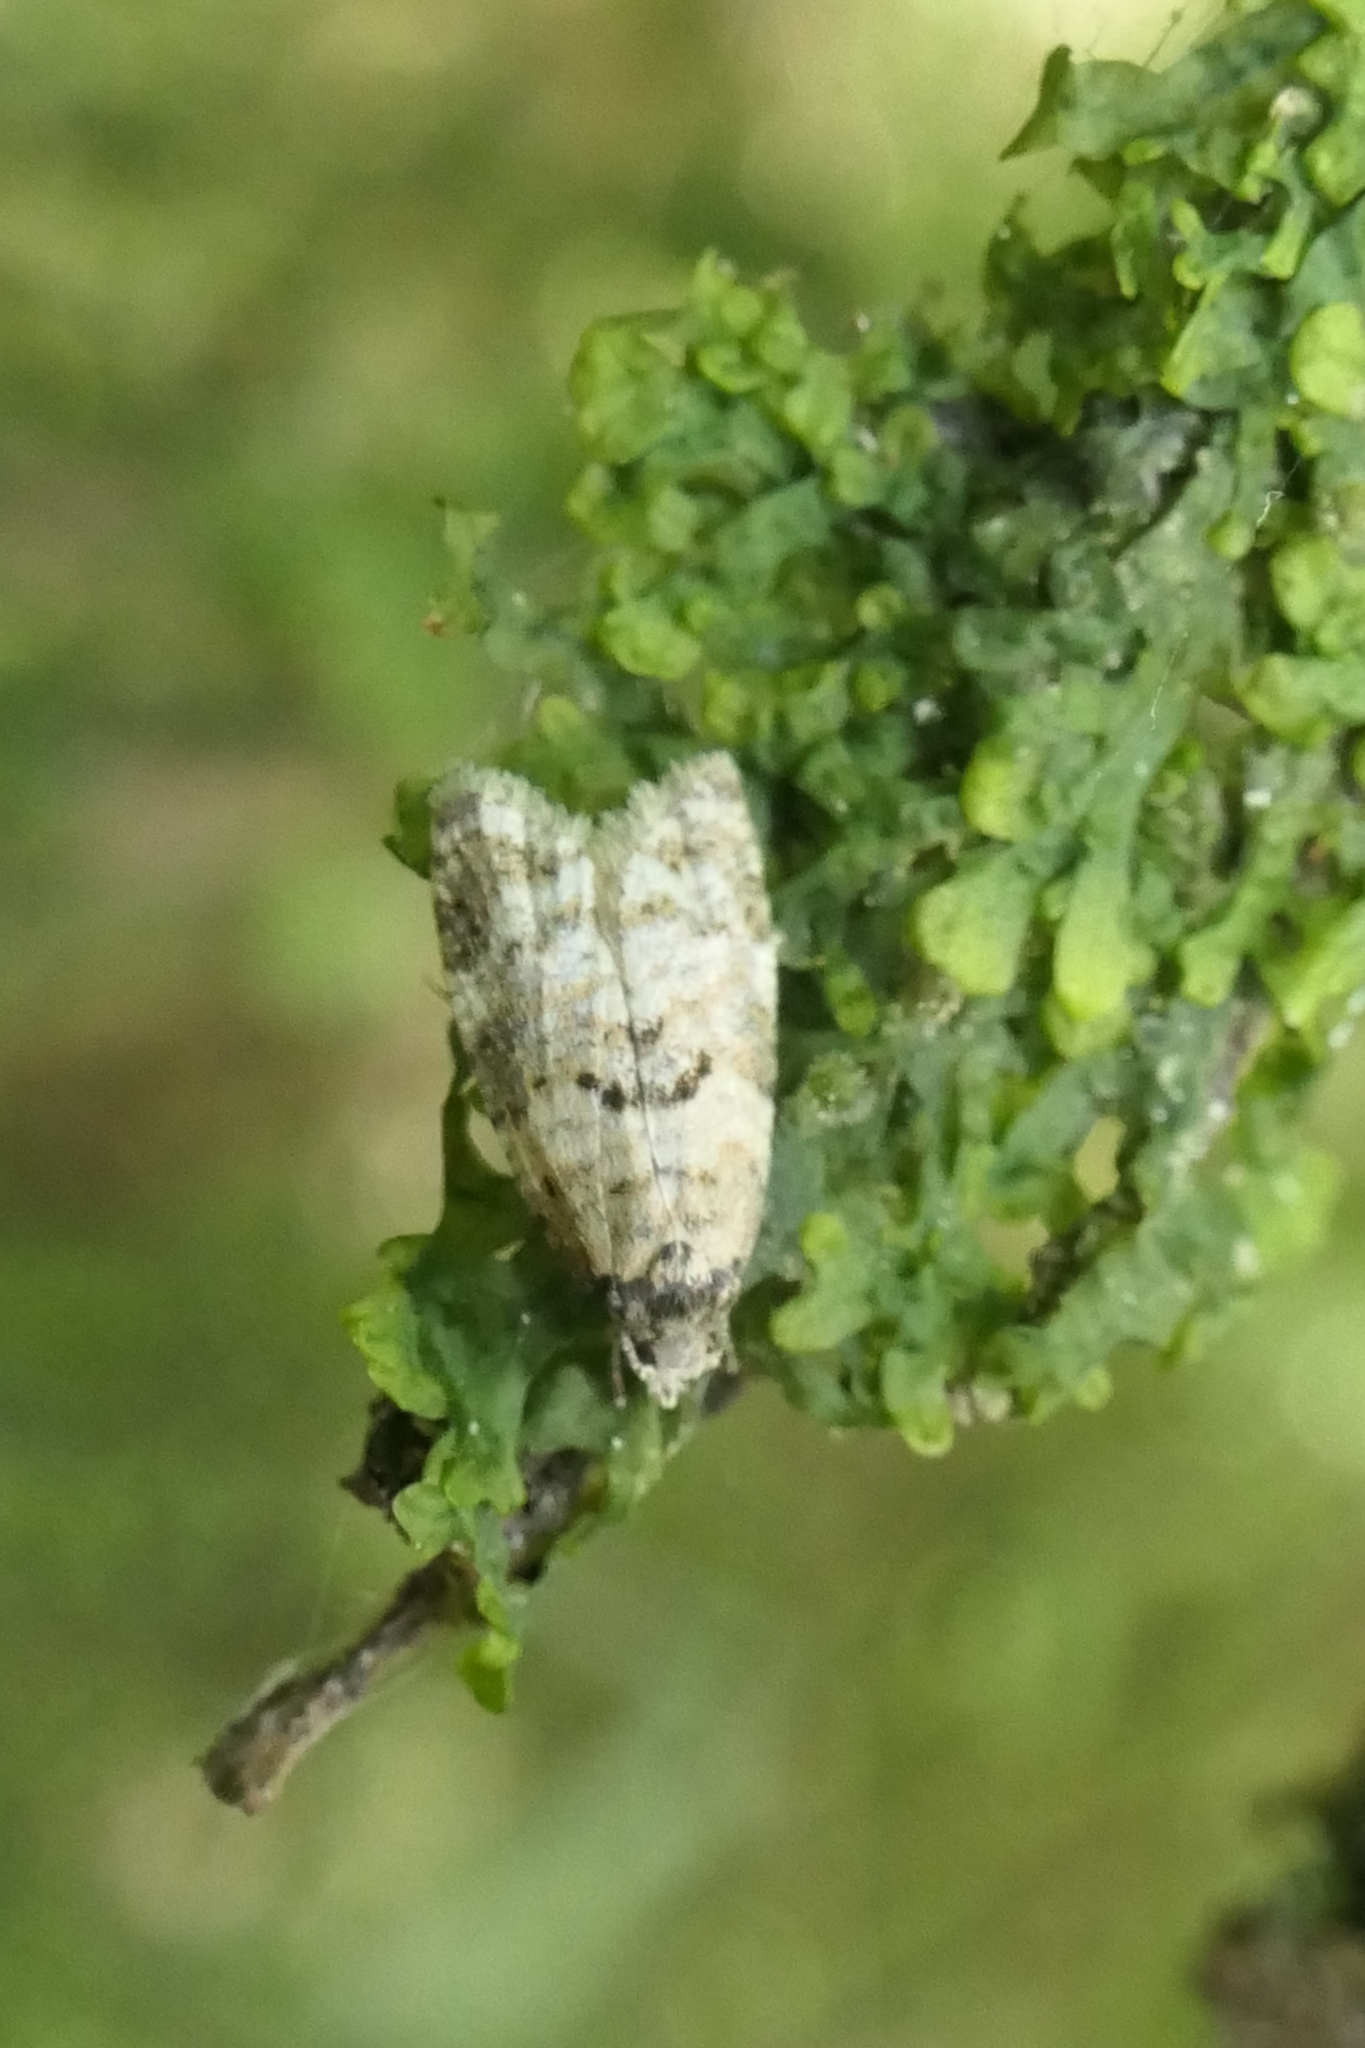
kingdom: Animalia
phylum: Arthropoda
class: Insecta
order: Lepidoptera
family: Tortricidae
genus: Dipterina
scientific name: Dipterina imbriferana
